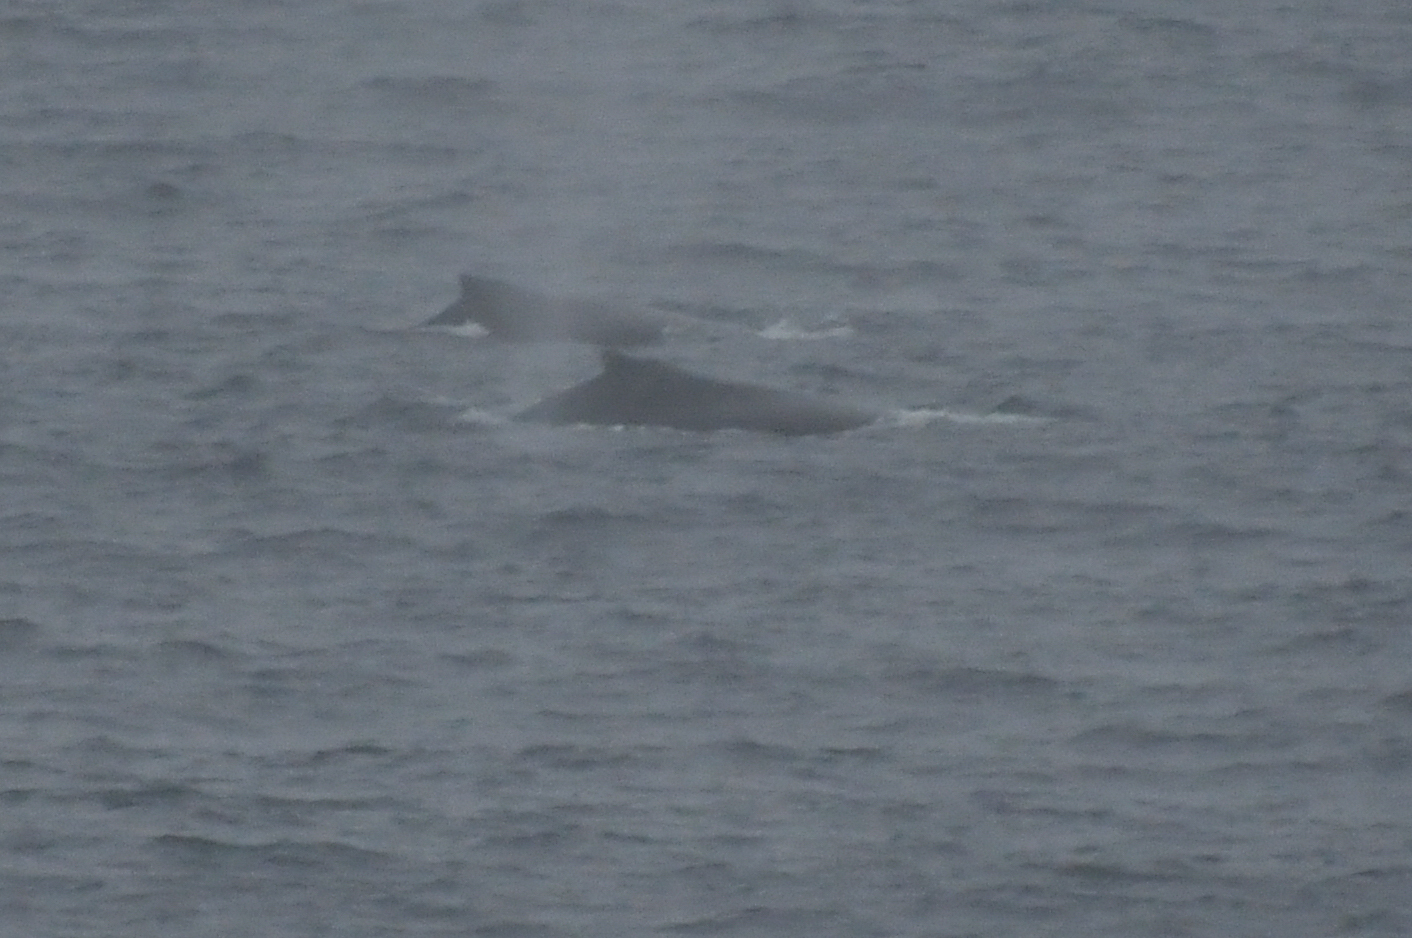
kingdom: Animalia
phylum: Chordata
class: Mammalia
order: Cetacea
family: Balaenopteridae
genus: Megaptera
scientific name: Megaptera novaeangliae
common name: Humpback whale
